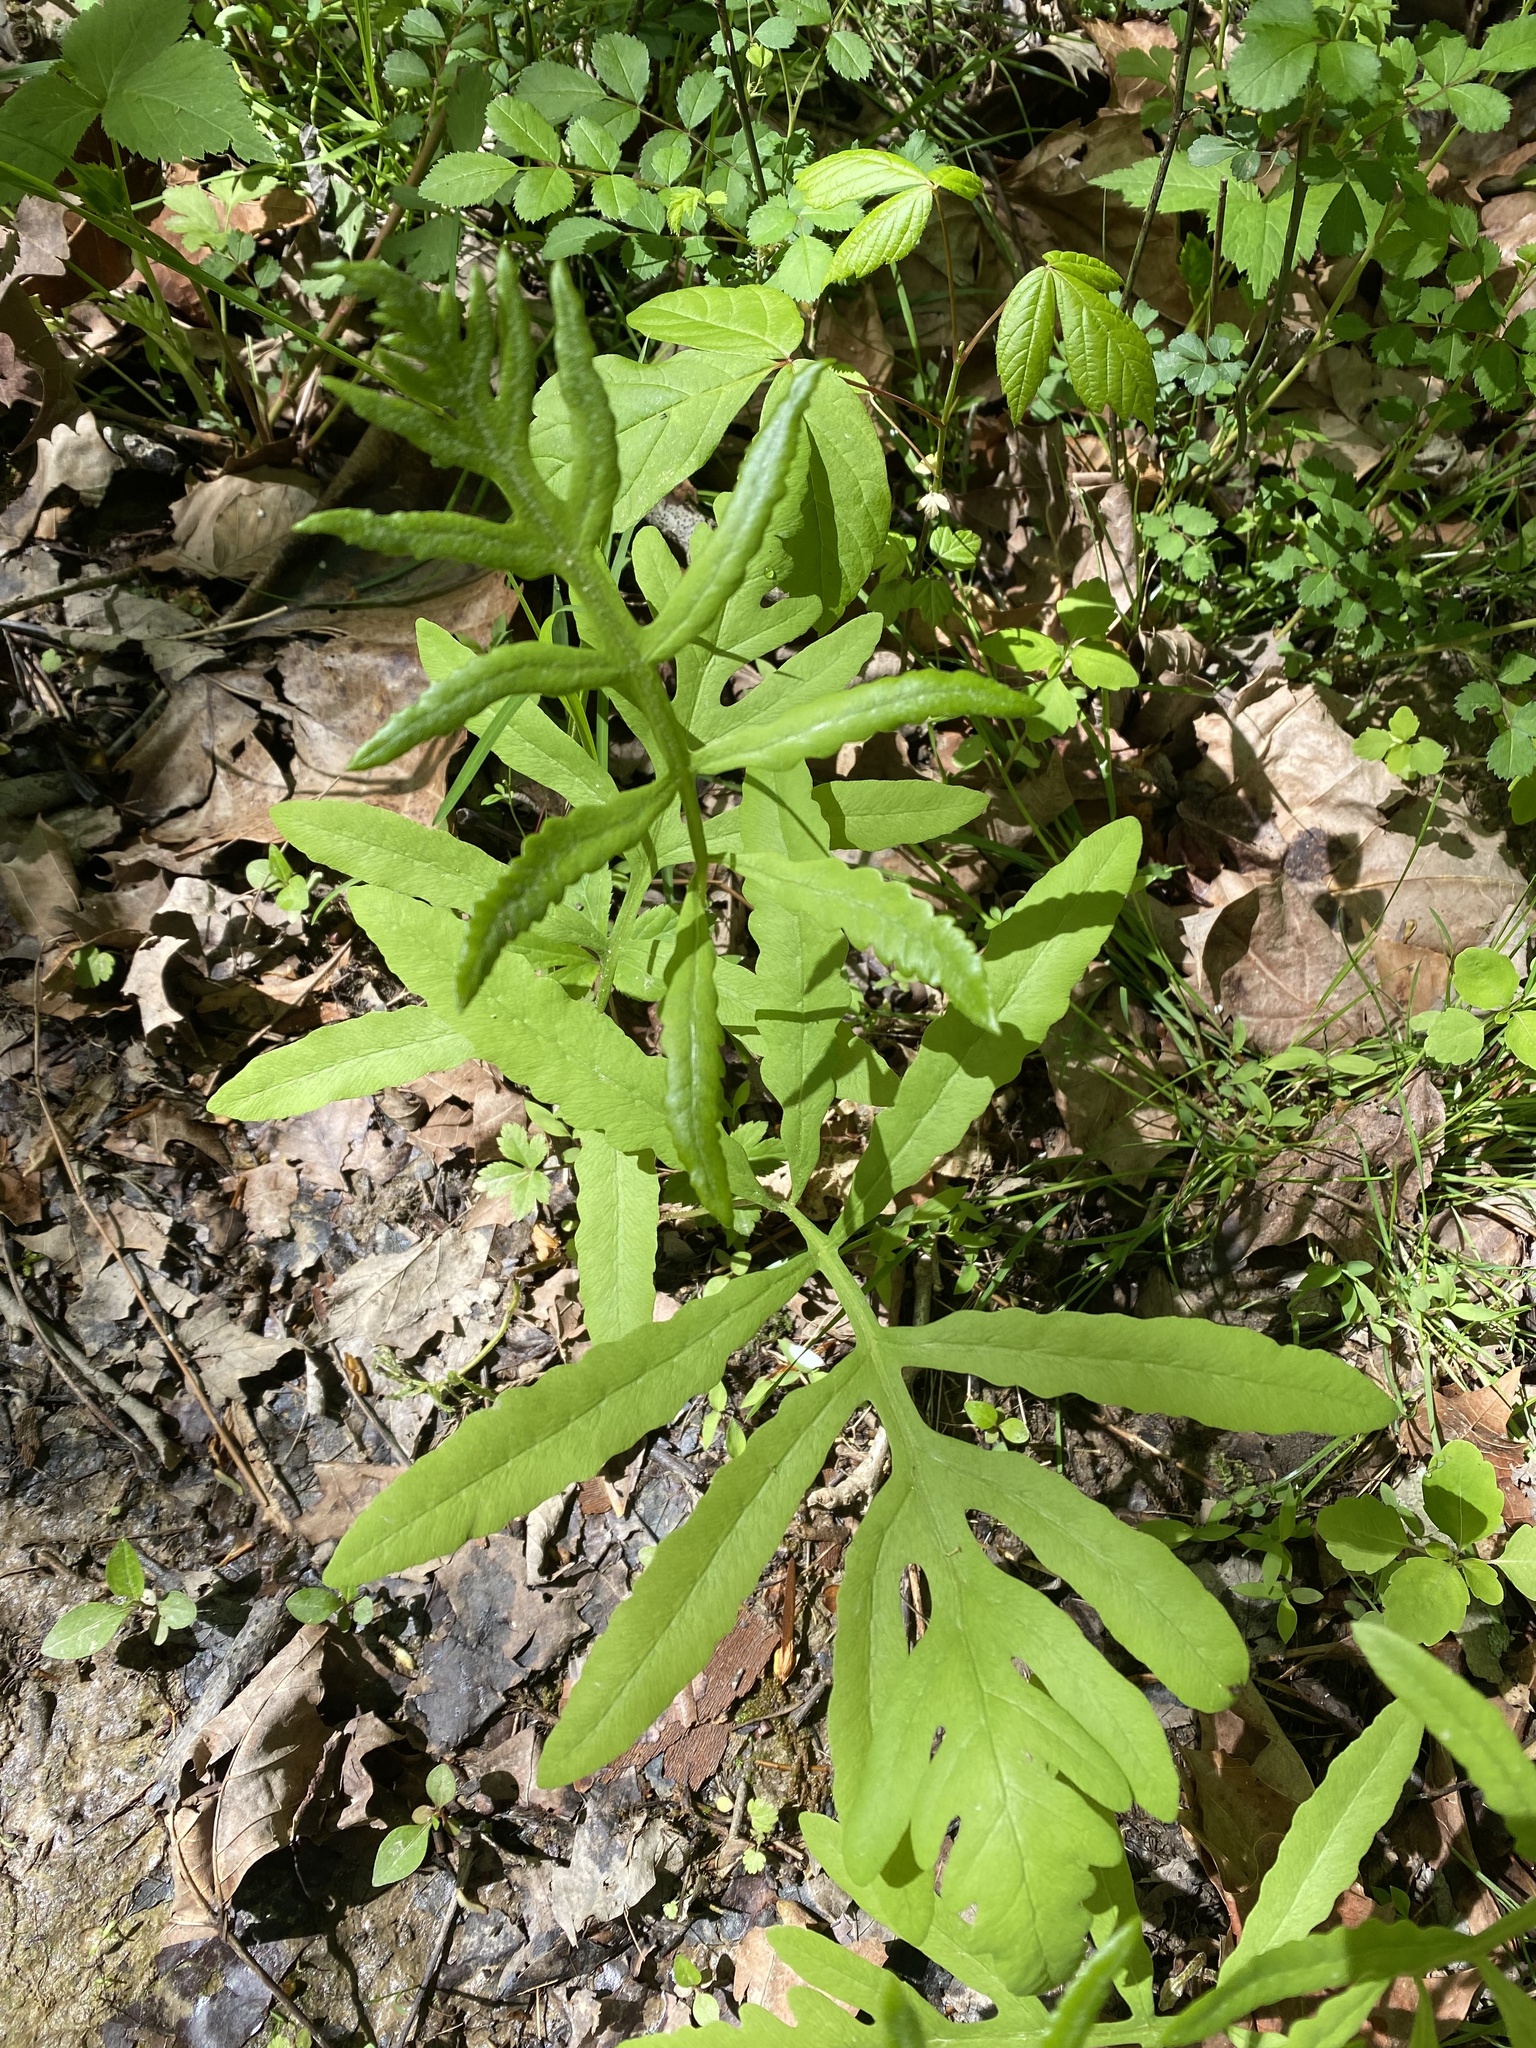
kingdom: Plantae
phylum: Tracheophyta
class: Polypodiopsida
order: Polypodiales
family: Onocleaceae
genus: Onoclea
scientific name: Onoclea sensibilis
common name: Sensitive fern
